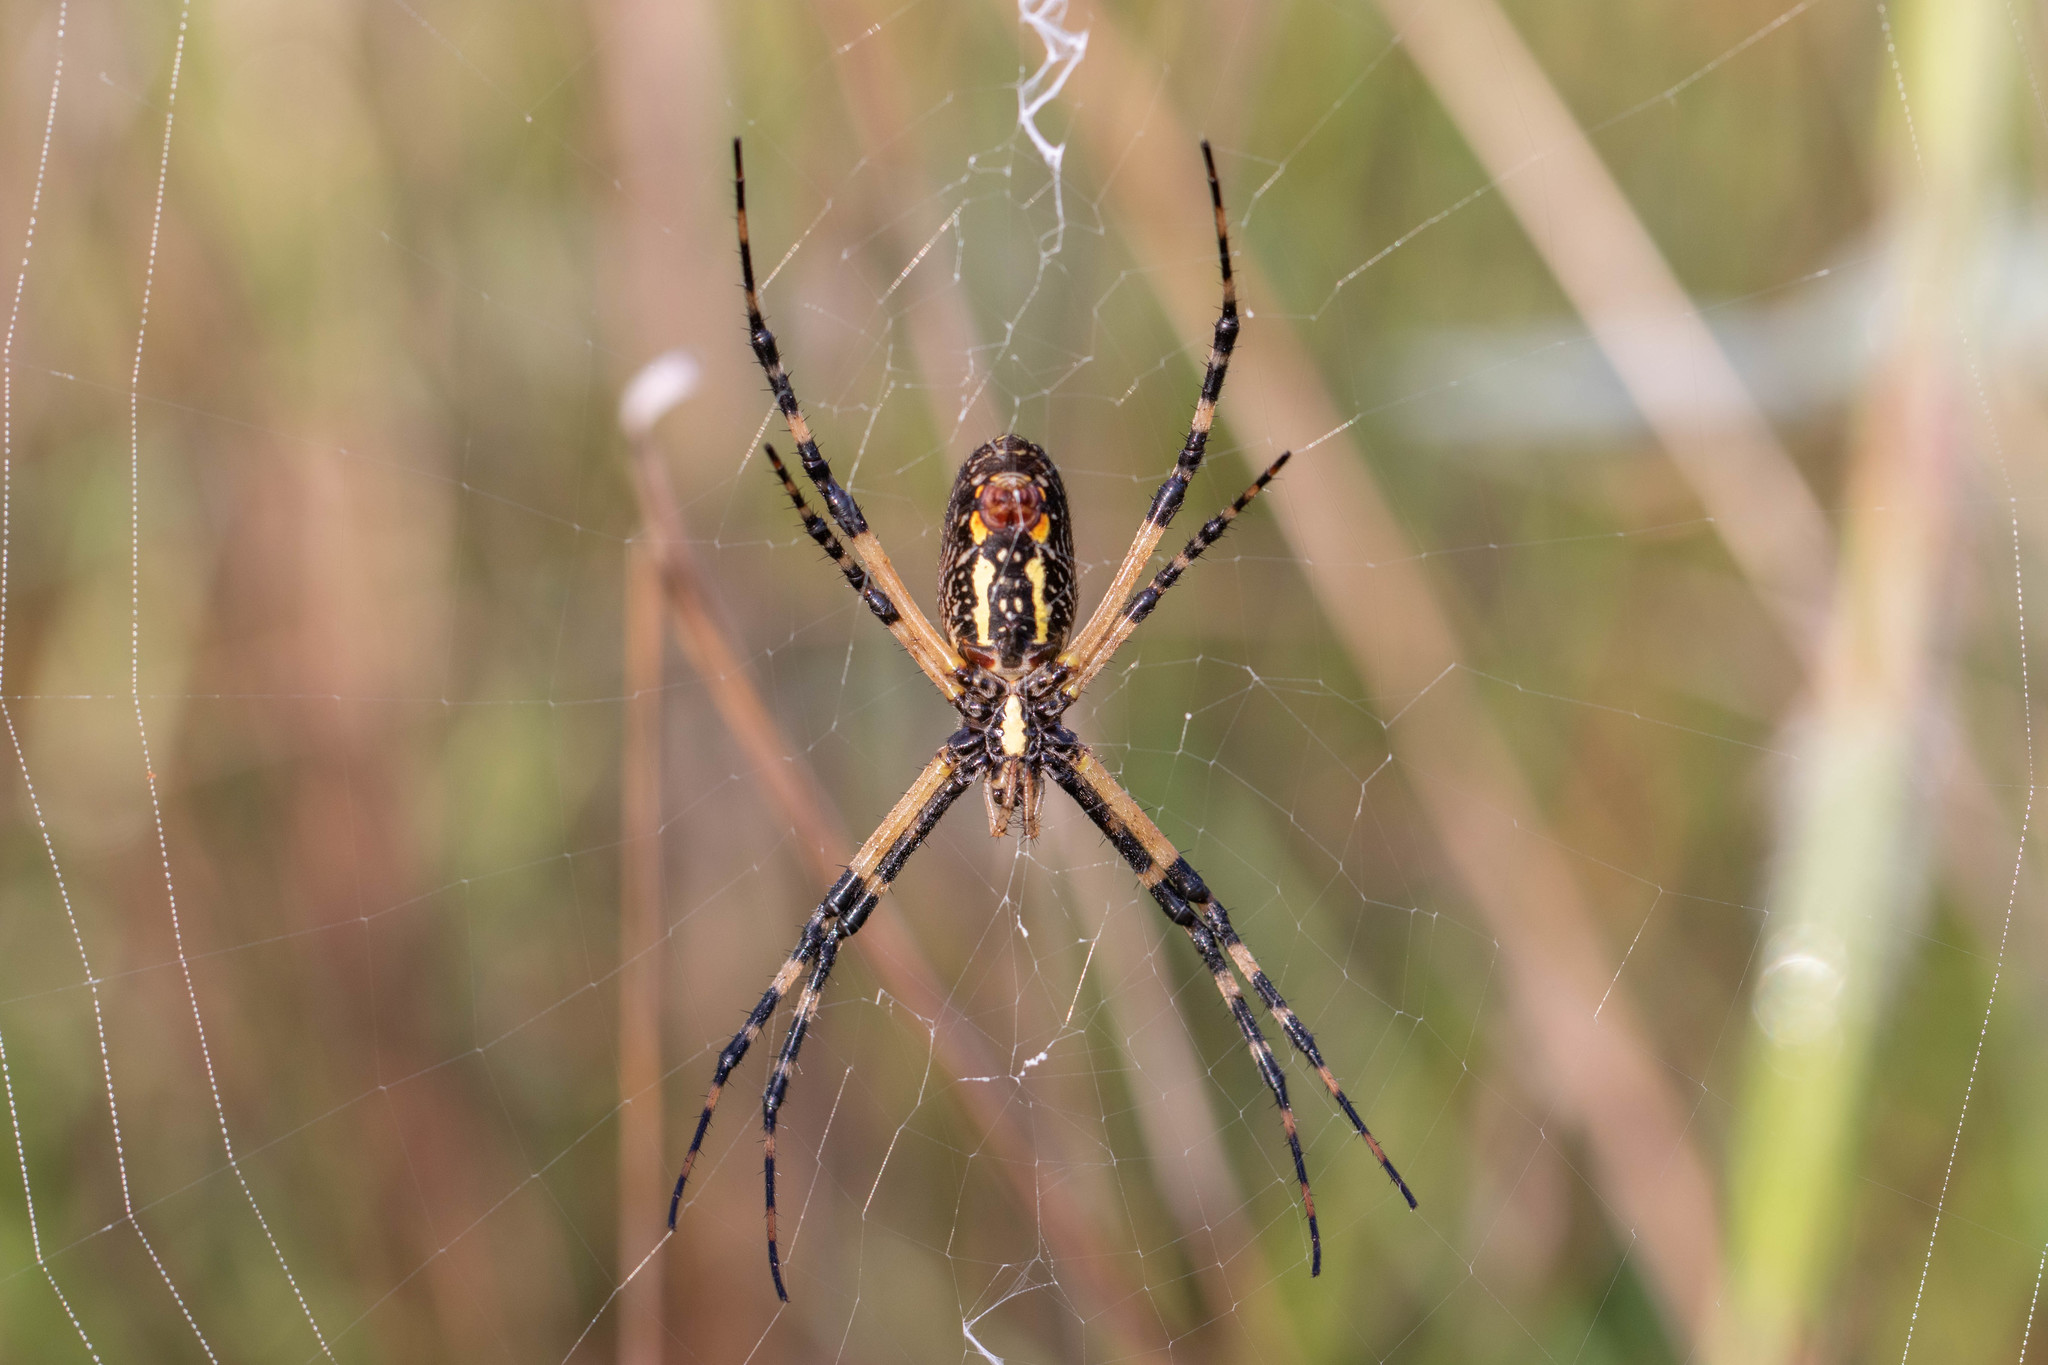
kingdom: Animalia
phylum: Arthropoda
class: Arachnida
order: Araneae
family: Araneidae
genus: Argiope
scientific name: Argiope aurantia
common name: Orb weavers
